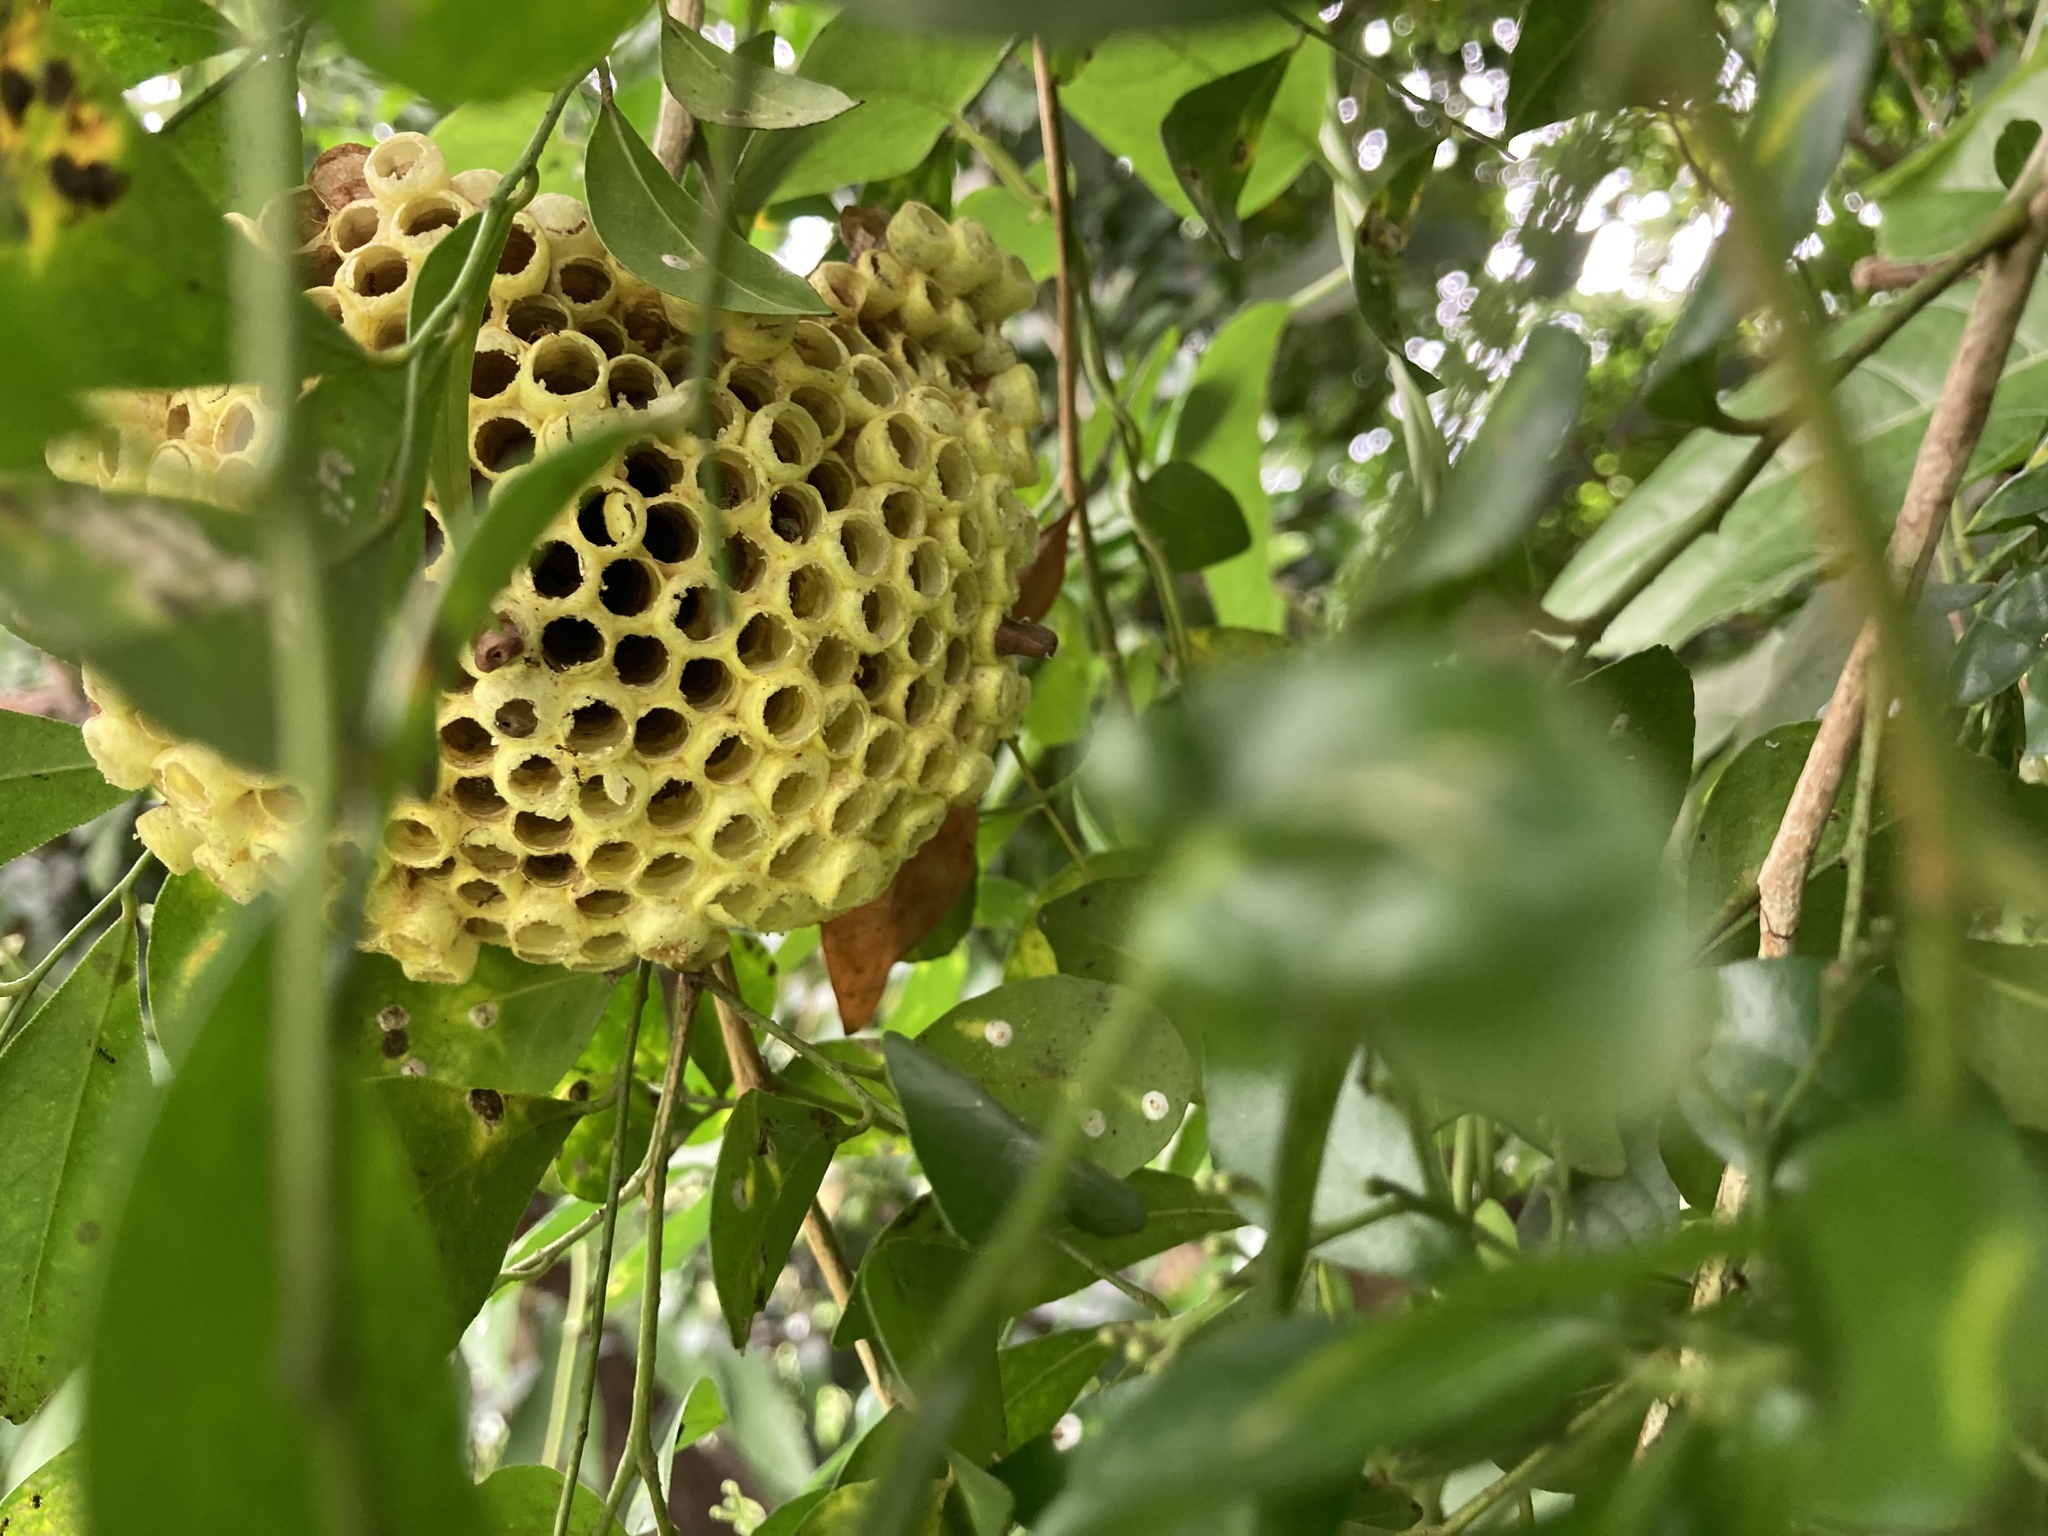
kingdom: Animalia
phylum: Arthropoda
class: Insecta
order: Hymenoptera
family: Eumenidae
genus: Polistes
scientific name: Polistes takasagonus
